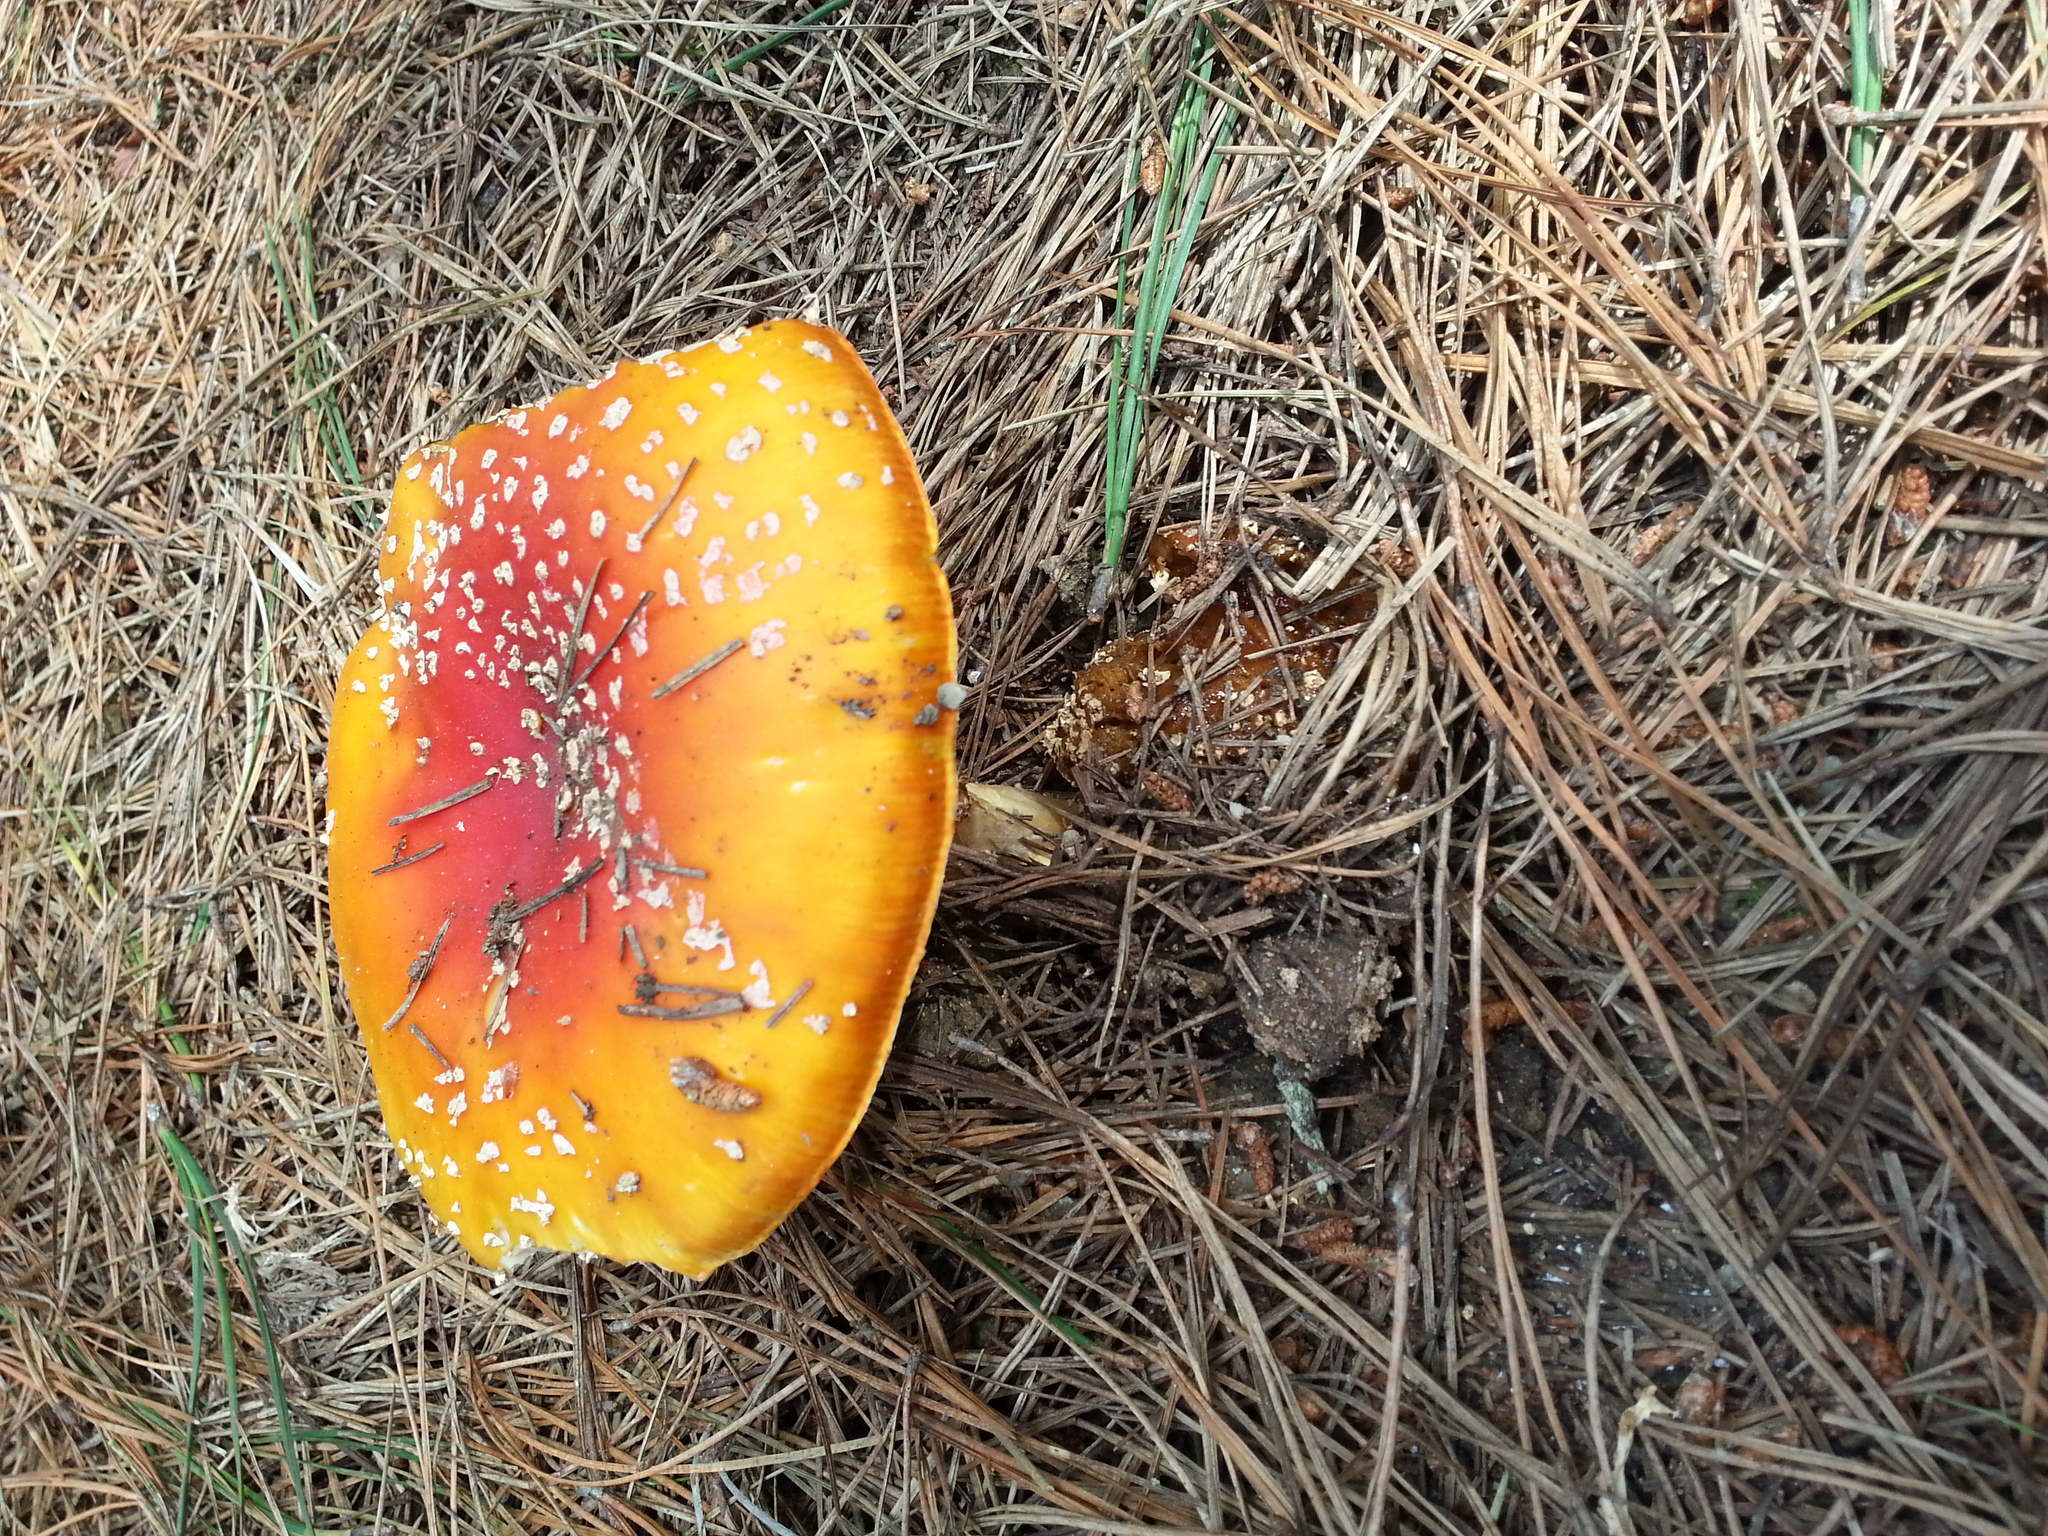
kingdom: Fungi
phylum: Basidiomycota
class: Agaricomycetes
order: Agaricales
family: Amanitaceae
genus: Amanita
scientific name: Amanita muscaria
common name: Fly agaric
